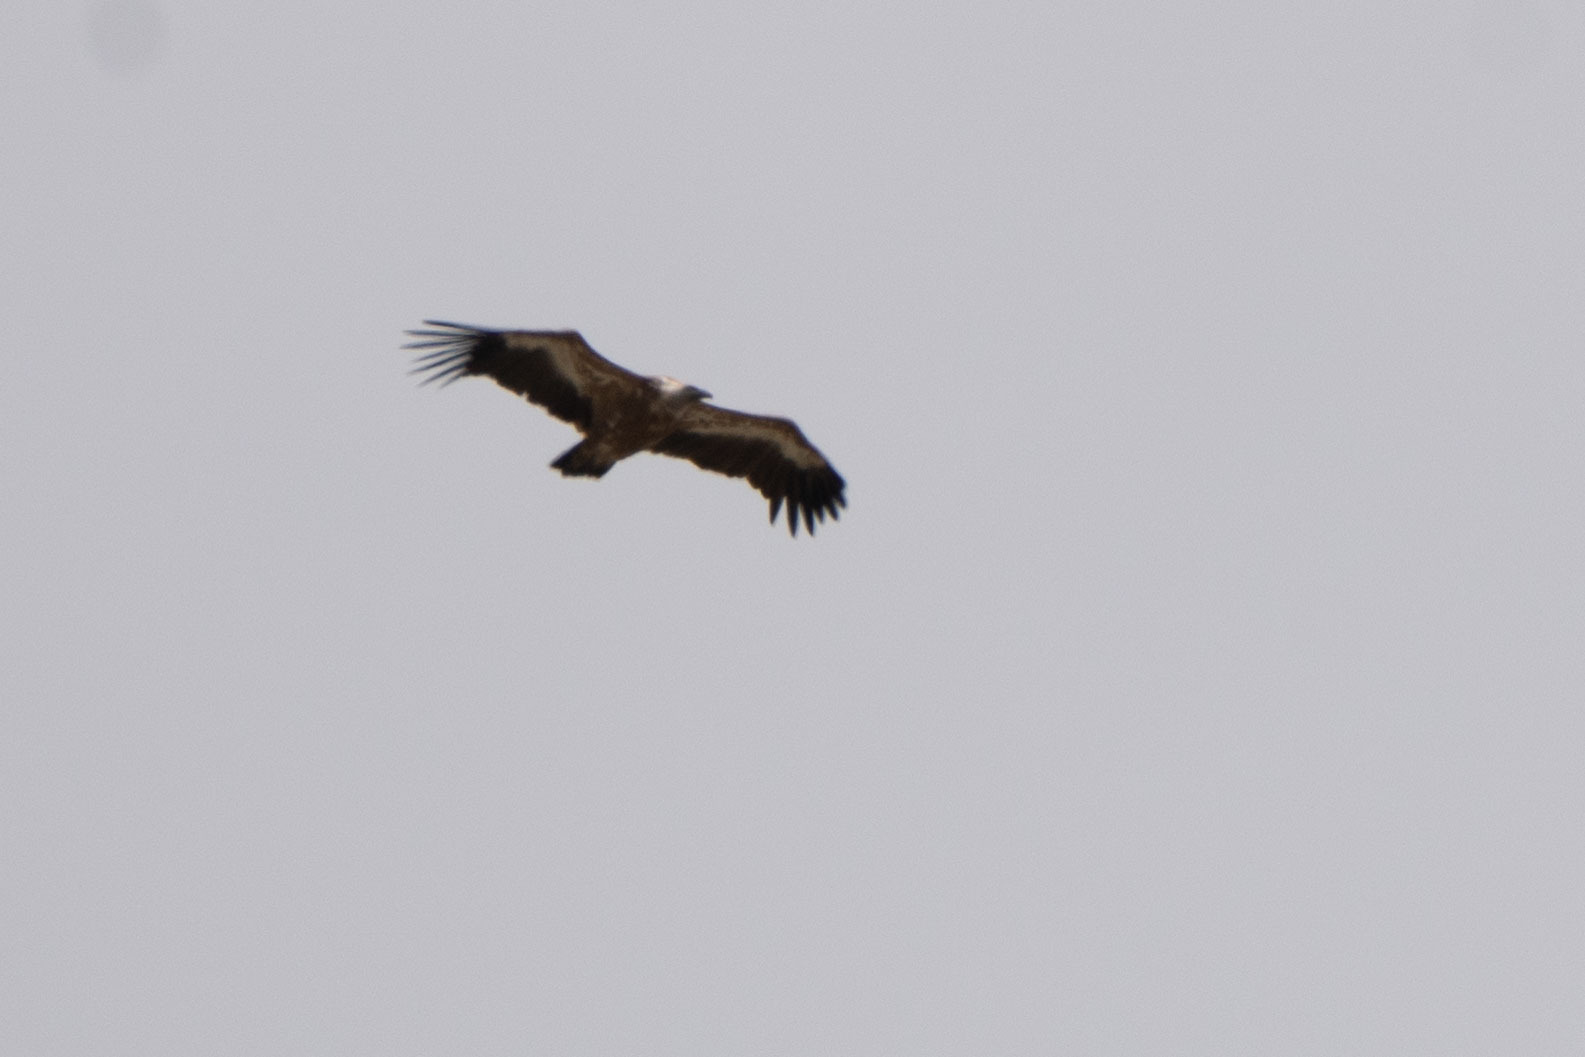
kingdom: Animalia
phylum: Chordata
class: Aves
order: Accipitriformes
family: Accipitridae
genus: Gyps
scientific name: Gyps fulvus
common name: Griffon vulture
